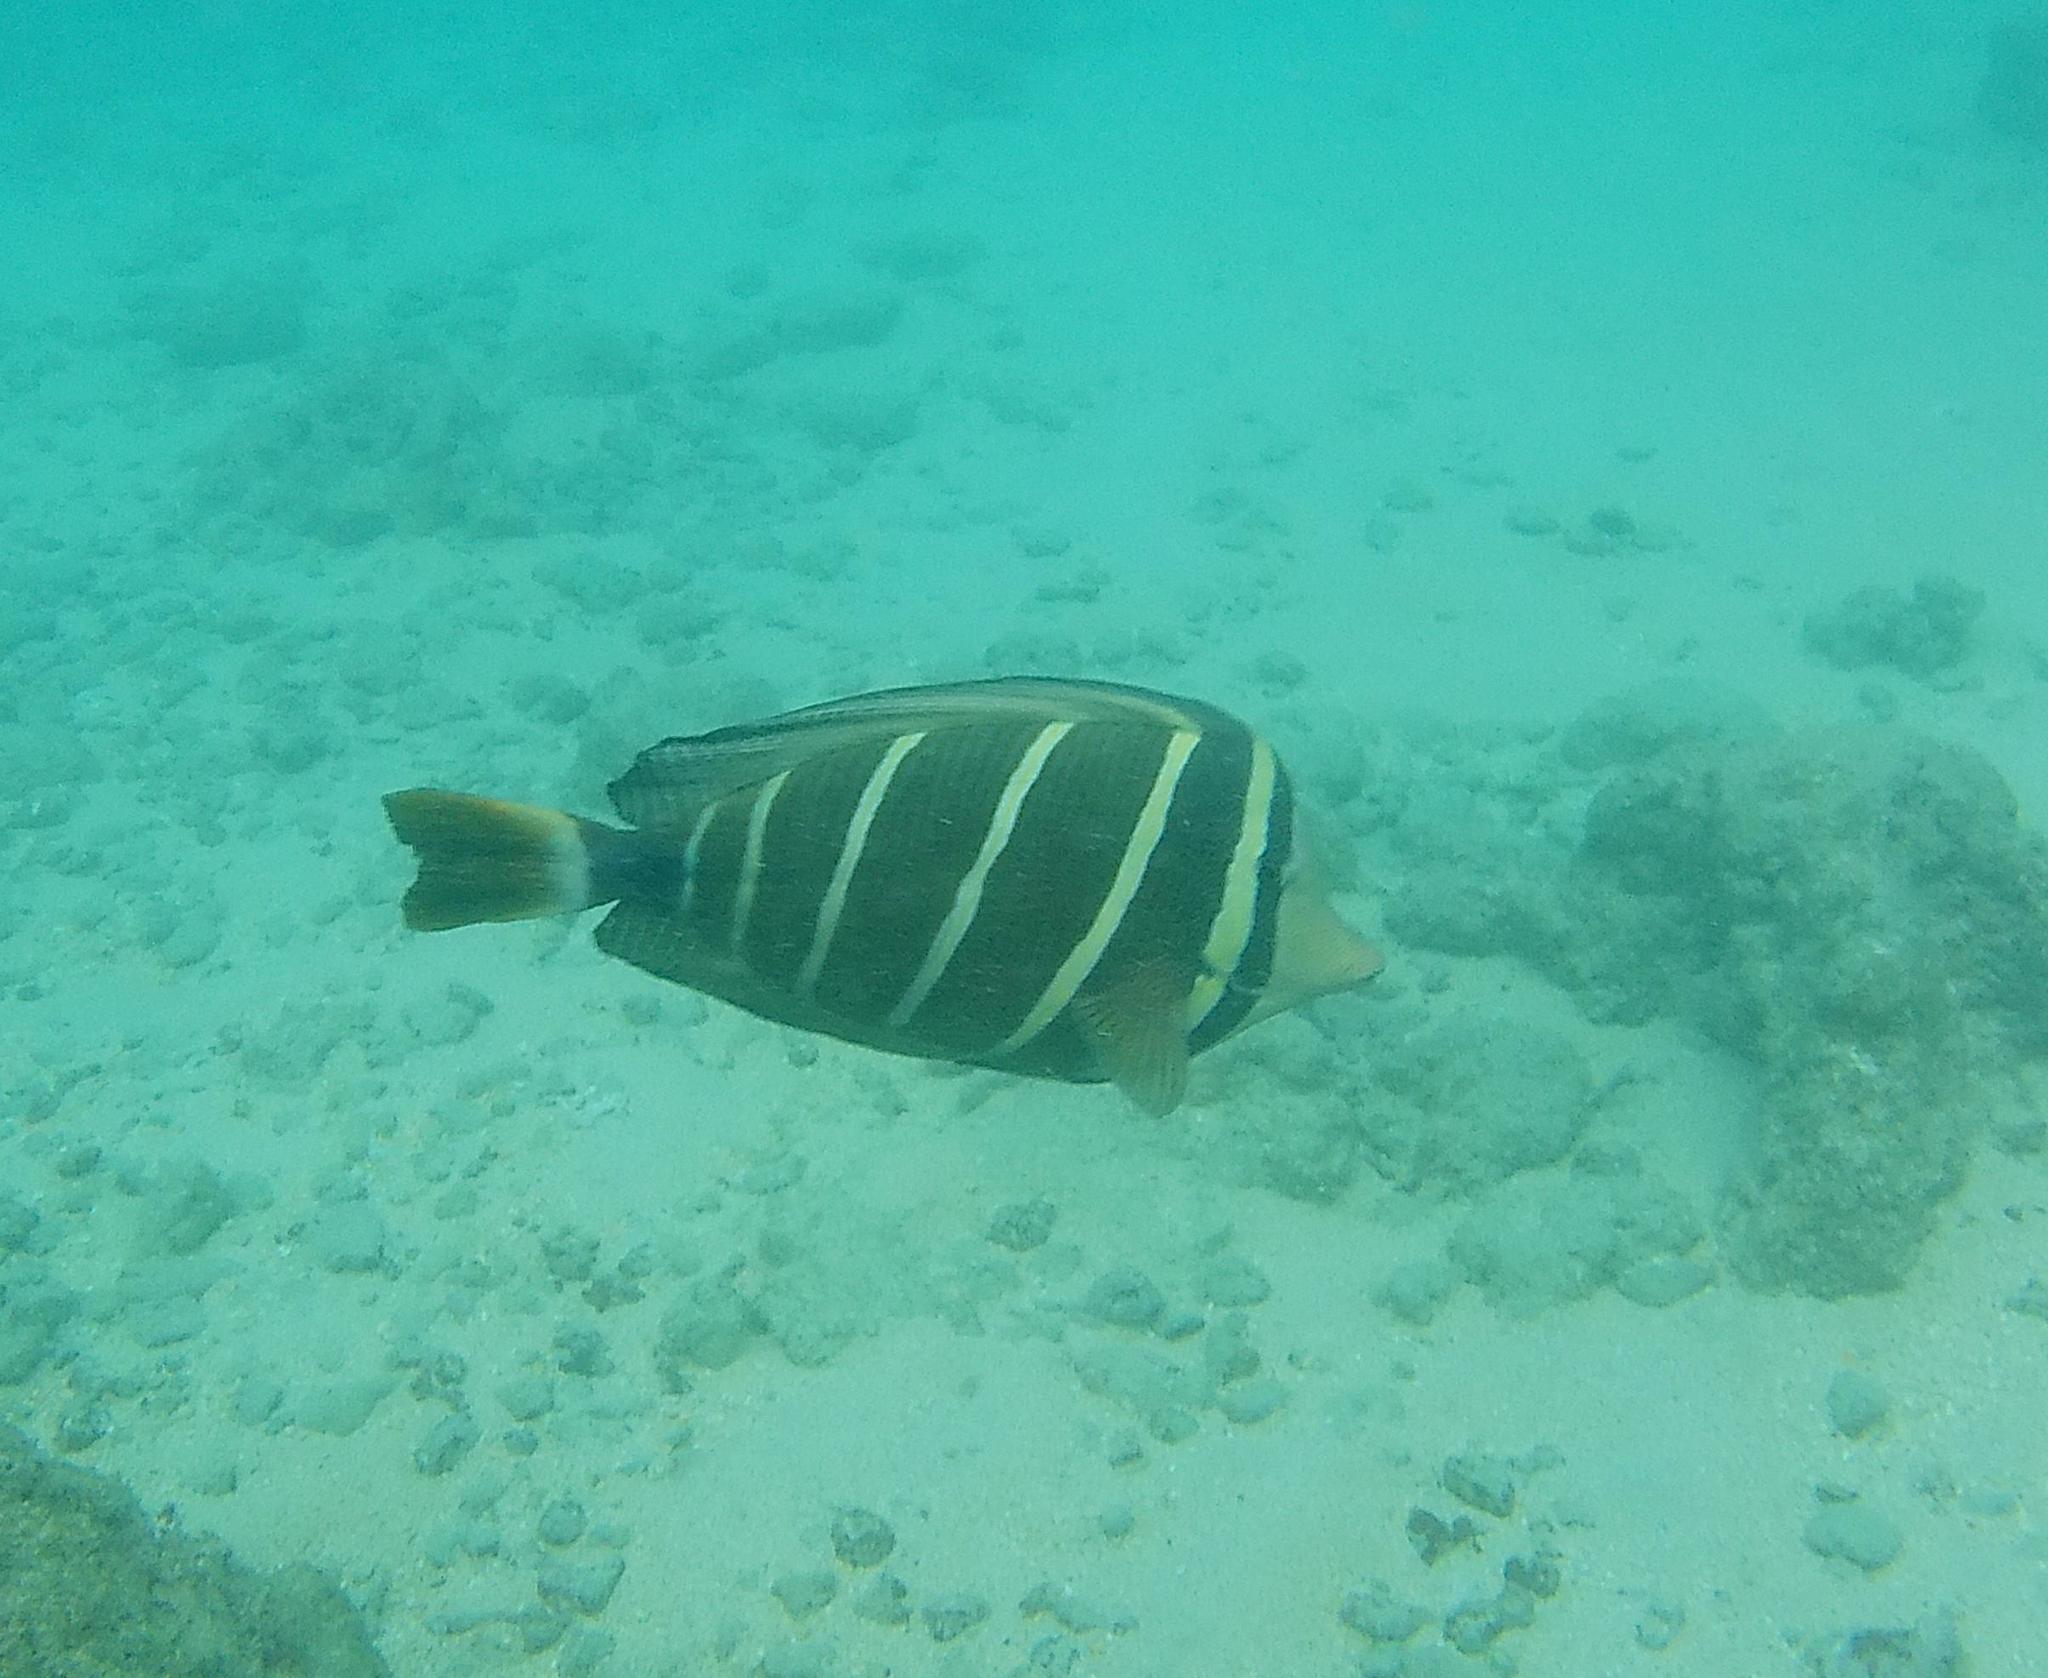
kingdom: Animalia
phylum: Chordata
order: Perciformes
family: Acanthuridae
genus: Zebrasoma
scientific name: Zebrasoma veliferum
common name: Sailfin surgeonfish
